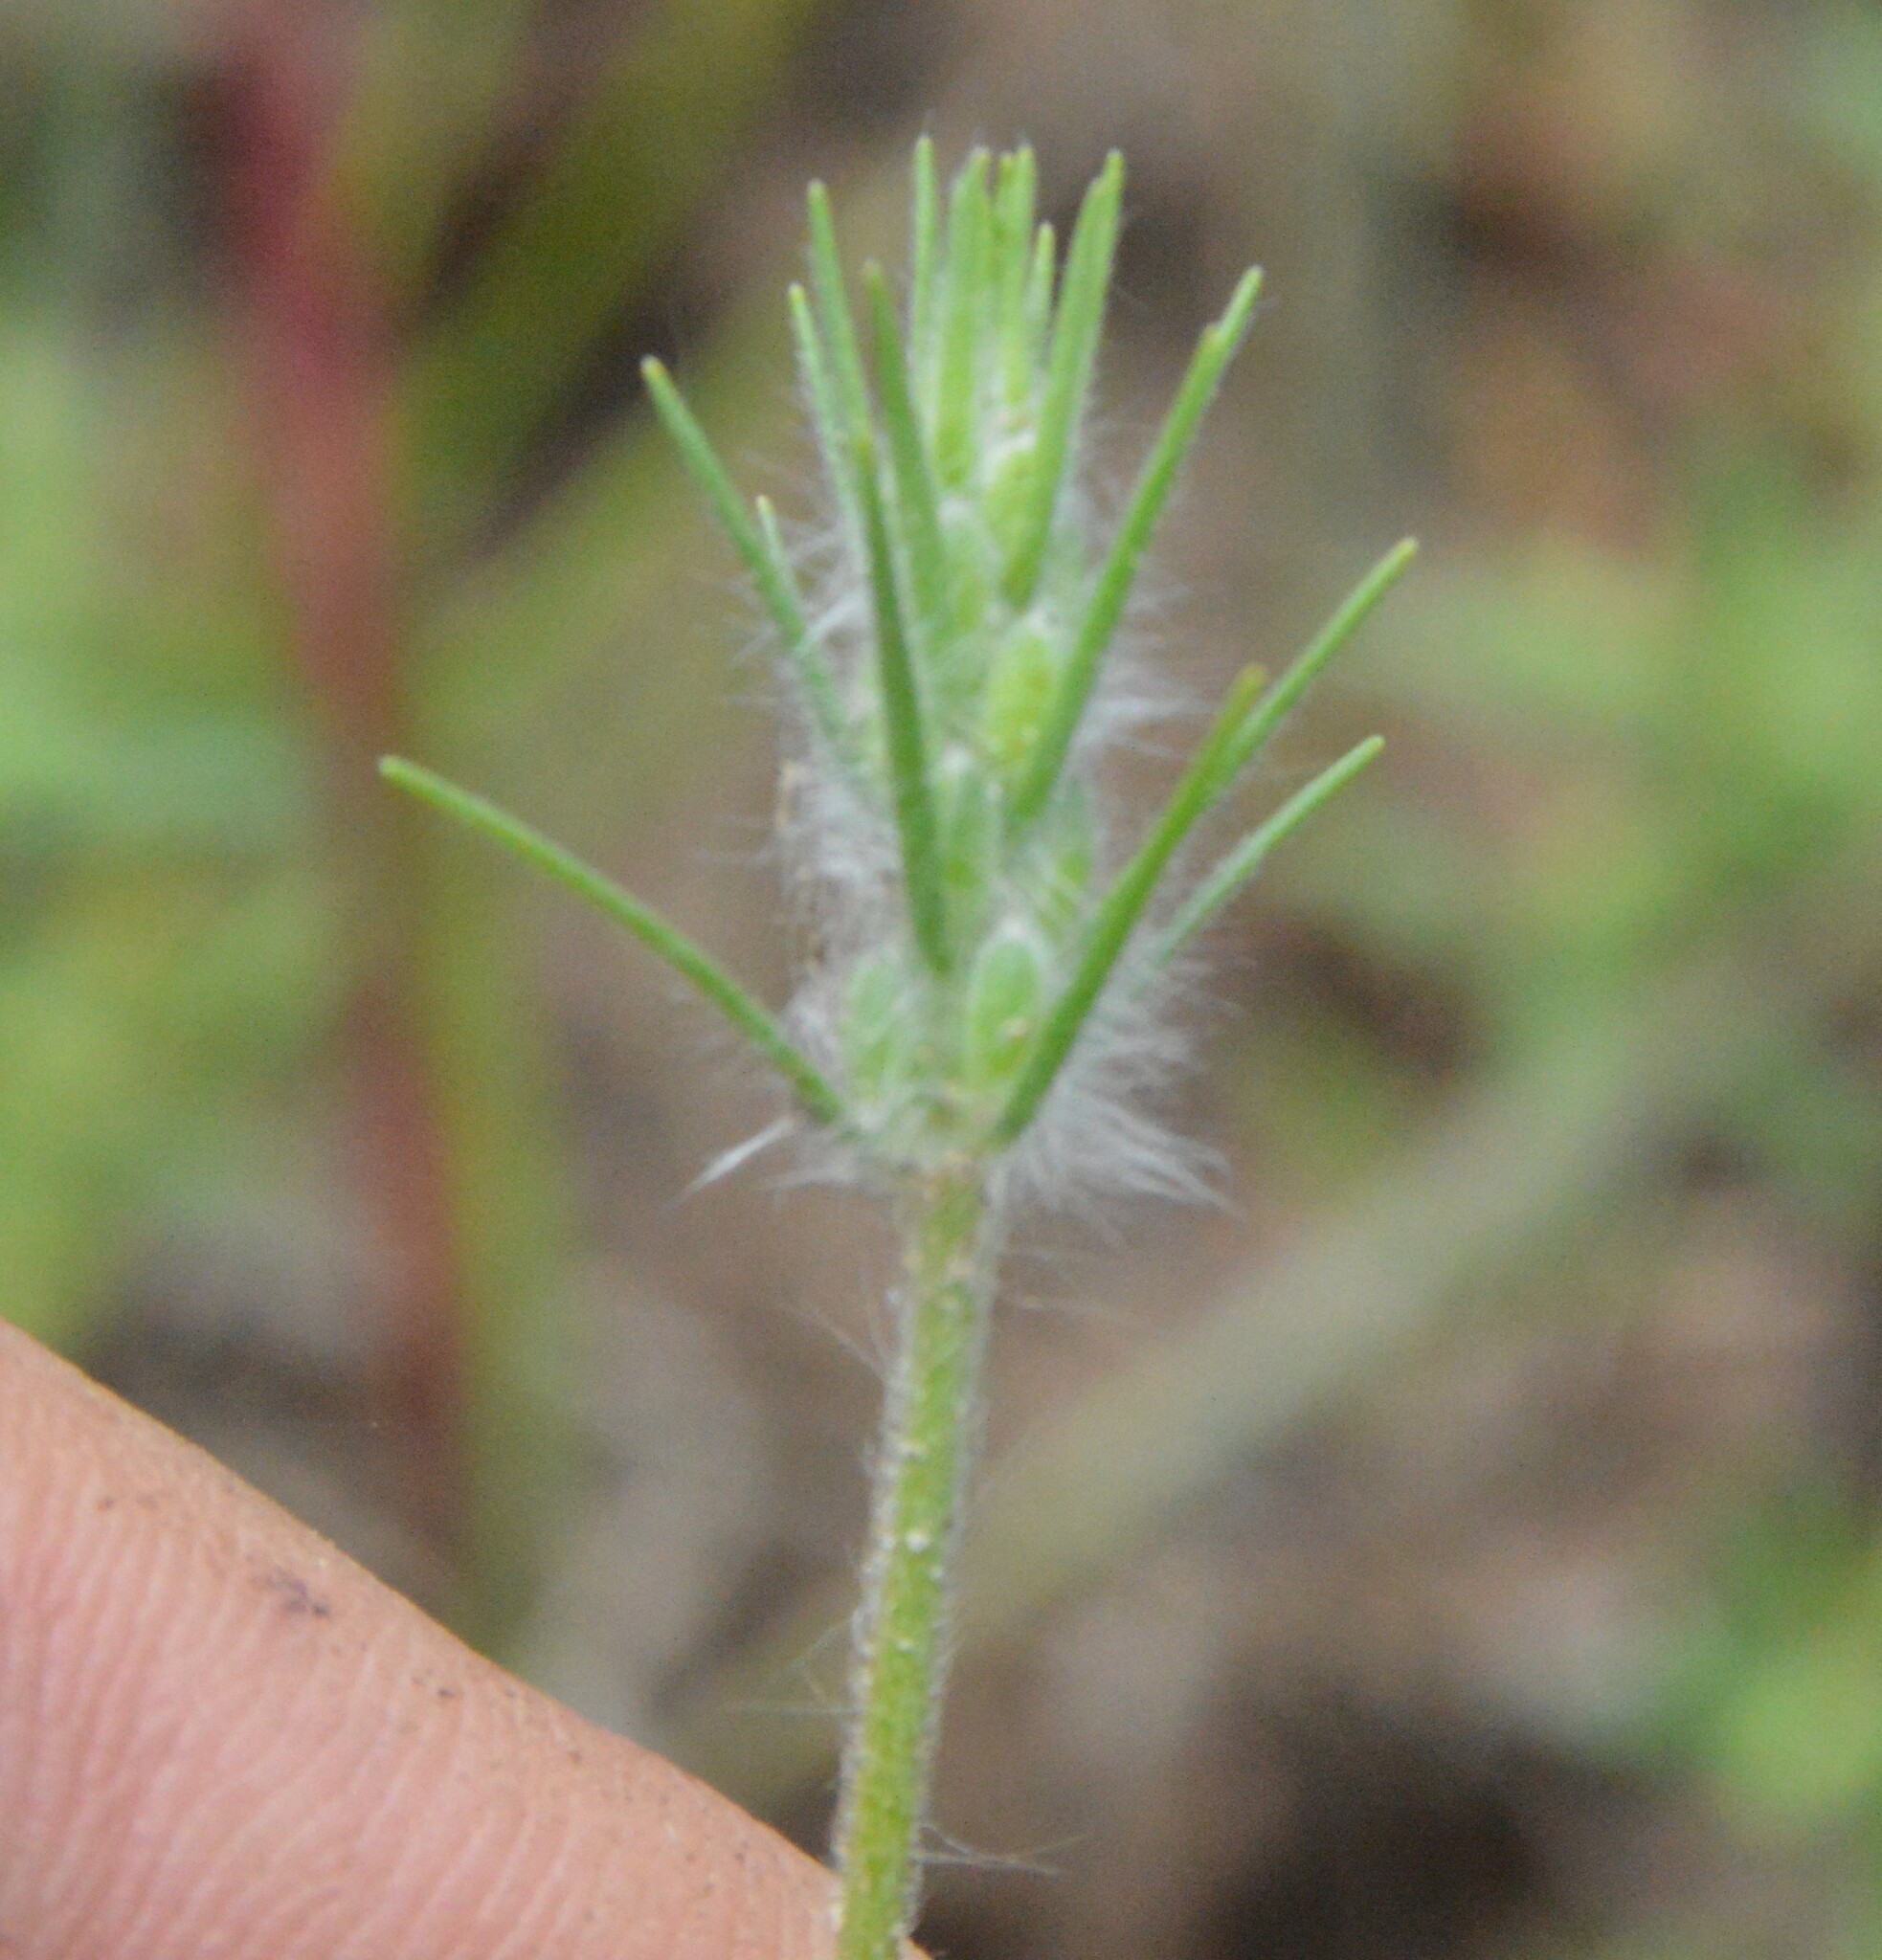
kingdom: Plantae
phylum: Tracheophyta
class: Magnoliopsida
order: Lamiales
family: Plantaginaceae
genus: Plantago
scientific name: Plantago aristata
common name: Bracted plantain
